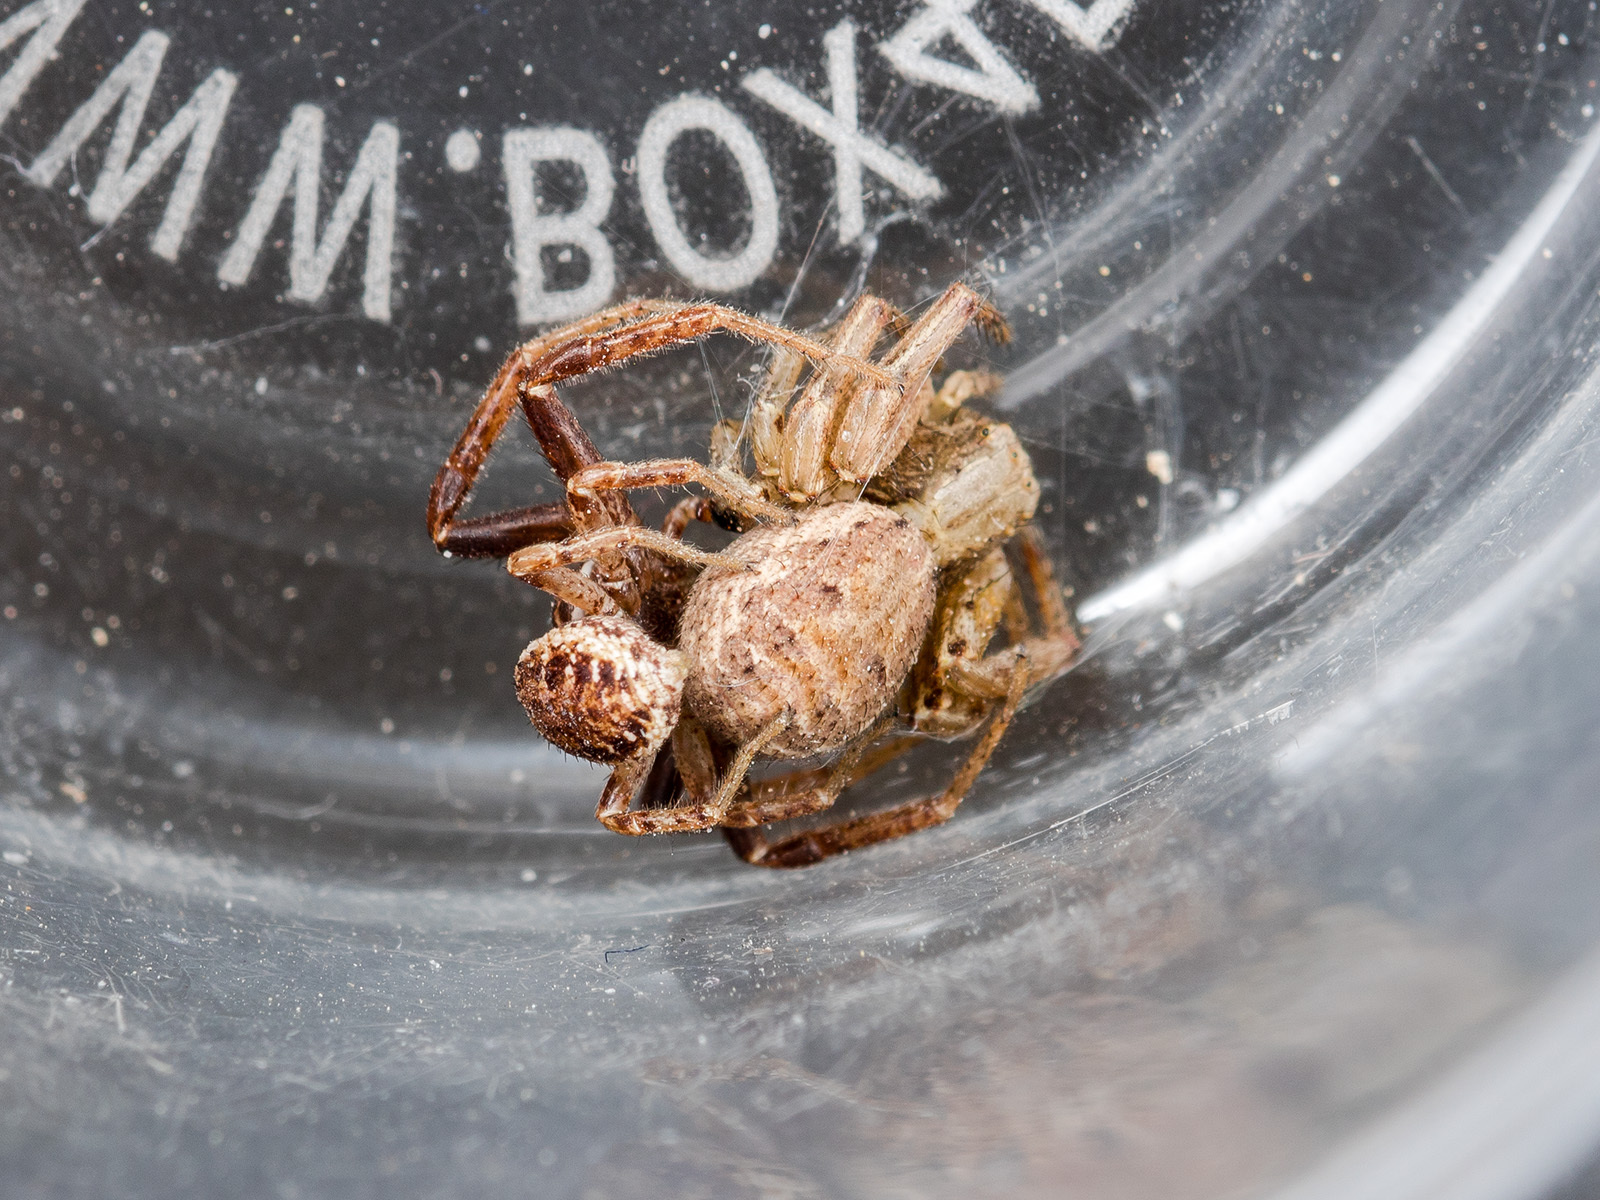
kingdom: Animalia
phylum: Arthropoda
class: Arachnida
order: Araneae
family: Thomisidae
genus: Spiracme
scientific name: Spiracme mongolica
